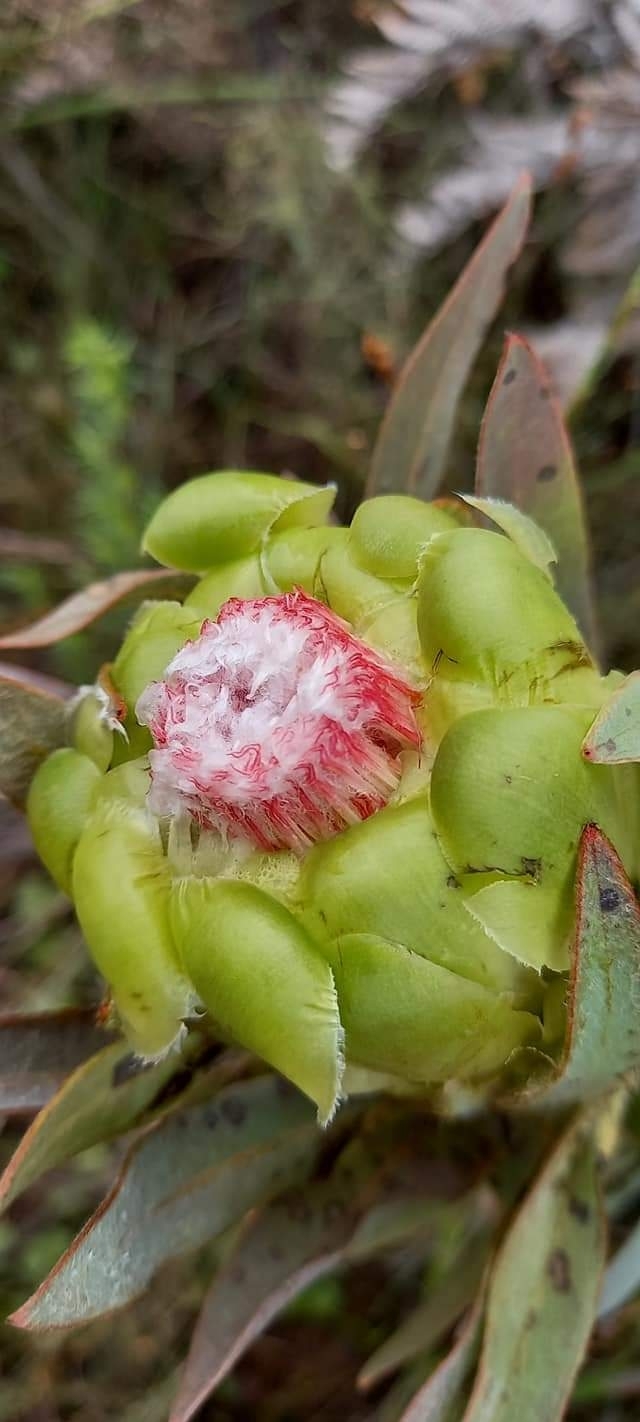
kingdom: Plantae
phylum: Tracheophyta
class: Magnoliopsida
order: Proteales
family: Proteaceae
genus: Protea
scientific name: Protea coronata
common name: Green sugarbush
